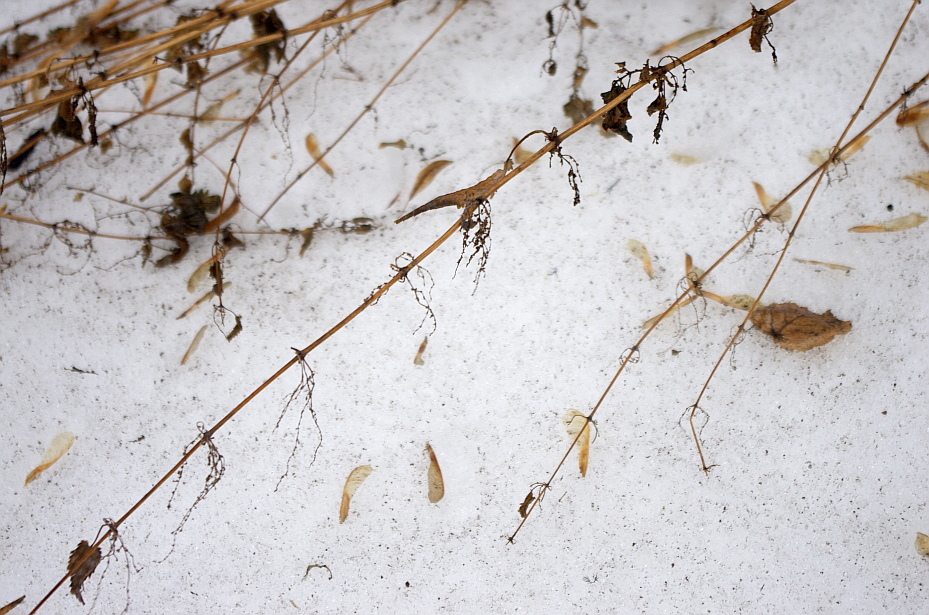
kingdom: Plantae
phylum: Tracheophyta
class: Magnoliopsida
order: Rosales
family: Urticaceae
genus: Urtica
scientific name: Urtica dioica
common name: Common nettle
